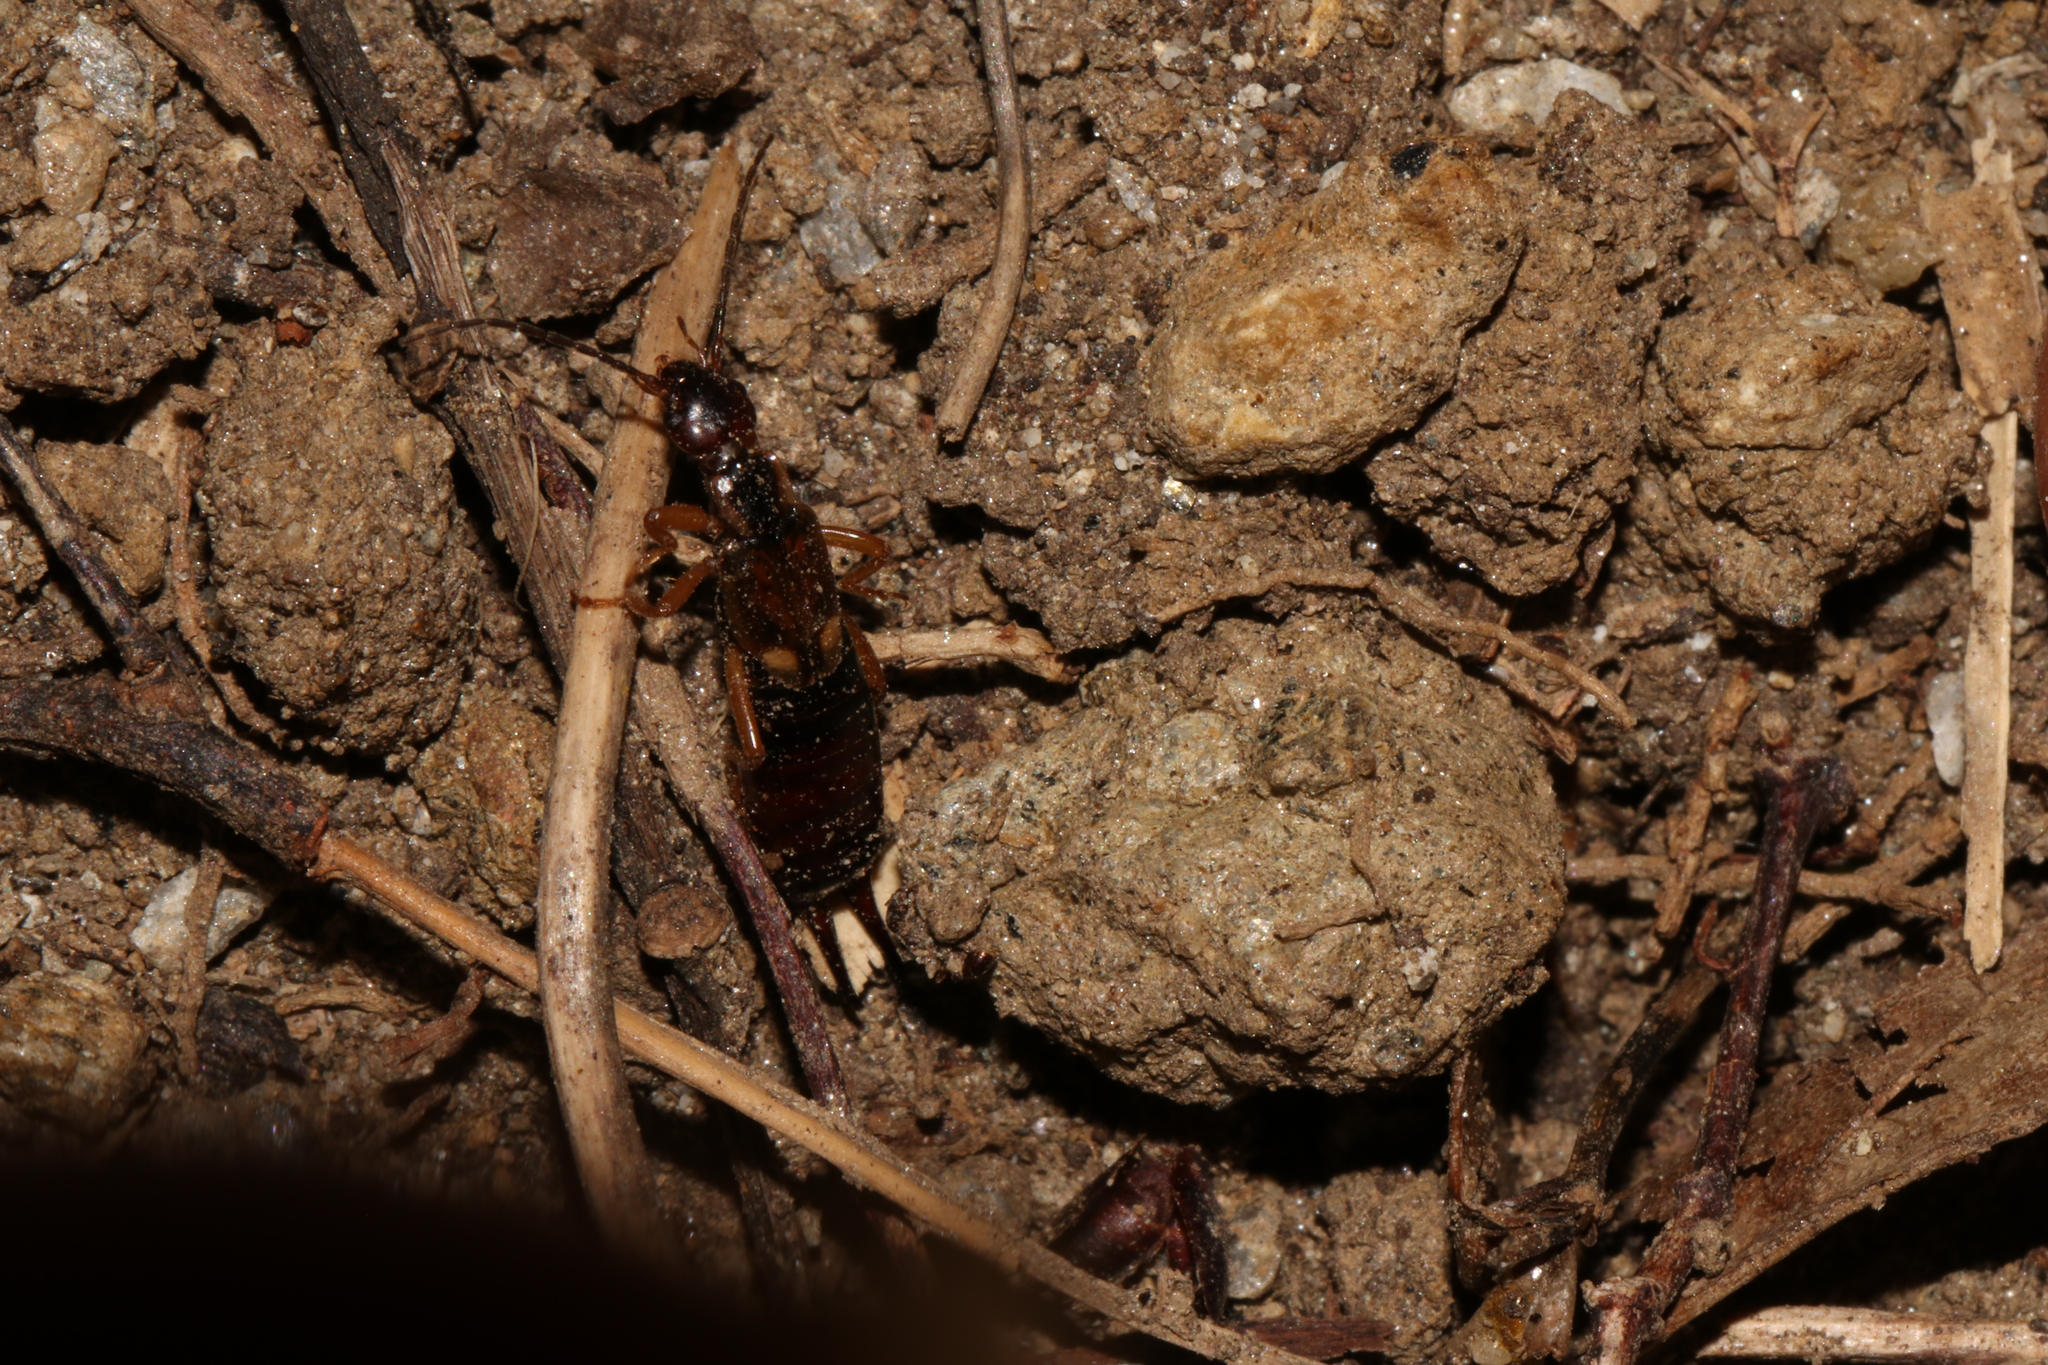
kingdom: Animalia
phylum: Arthropoda
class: Insecta
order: Dermaptera
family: Forficulidae
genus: Forficula
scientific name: Forficula
